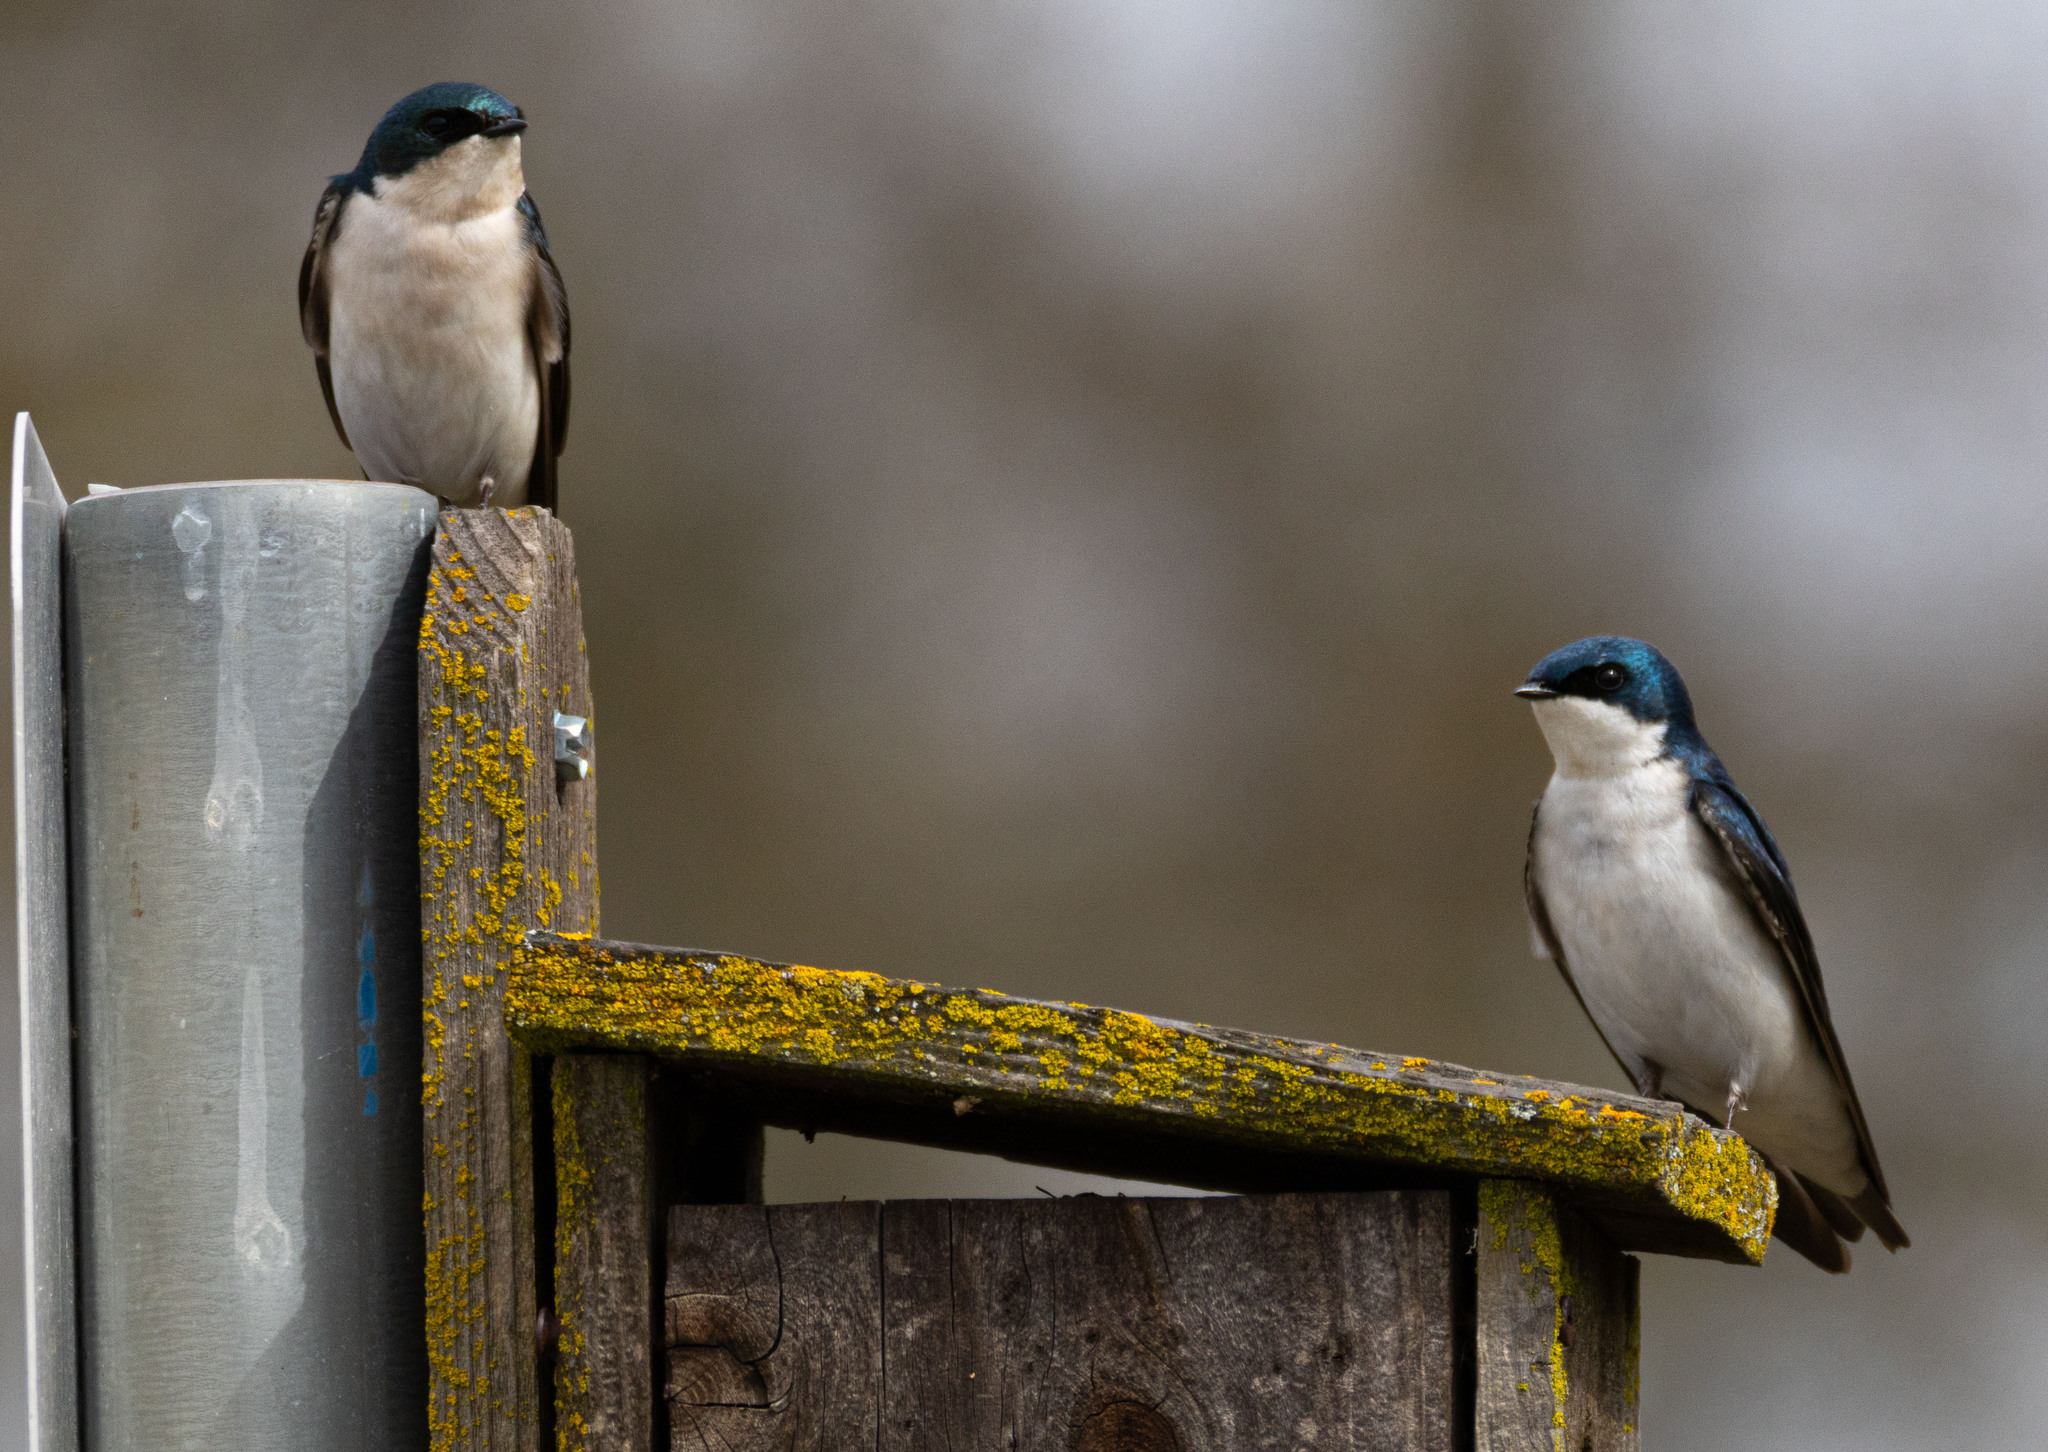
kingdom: Animalia
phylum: Chordata
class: Aves
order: Passeriformes
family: Hirundinidae
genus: Tachycineta
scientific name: Tachycineta bicolor
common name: Tree swallow
